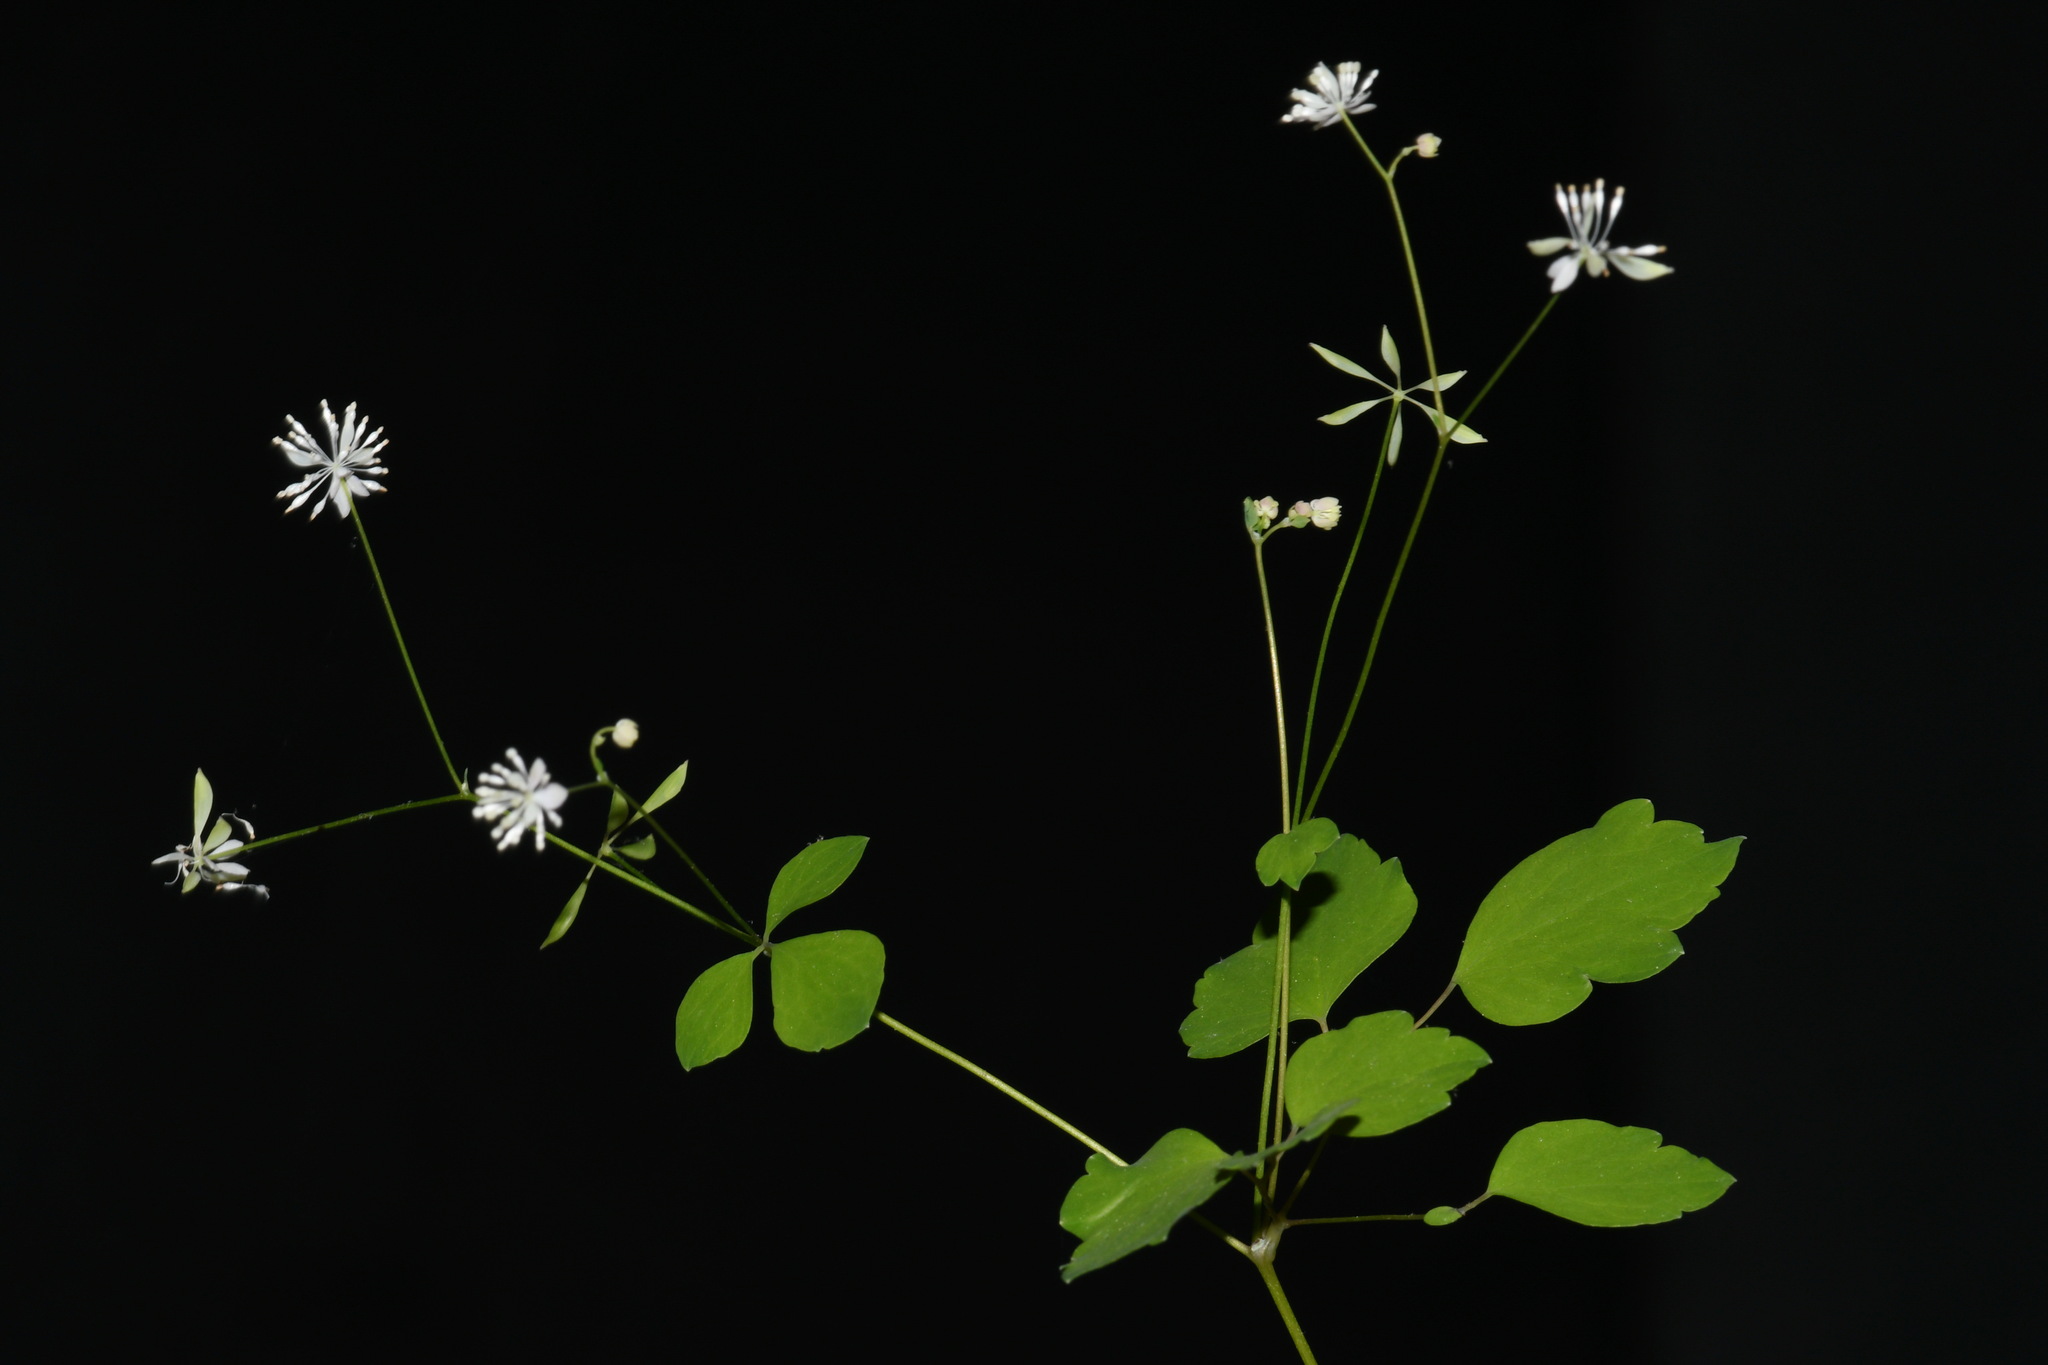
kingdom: Plantae
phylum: Tracheophyta
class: Magnoliopsida
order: Ranunculales
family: Ranunculaceae
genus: Thalictrum
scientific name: Thalictrum mirabile
